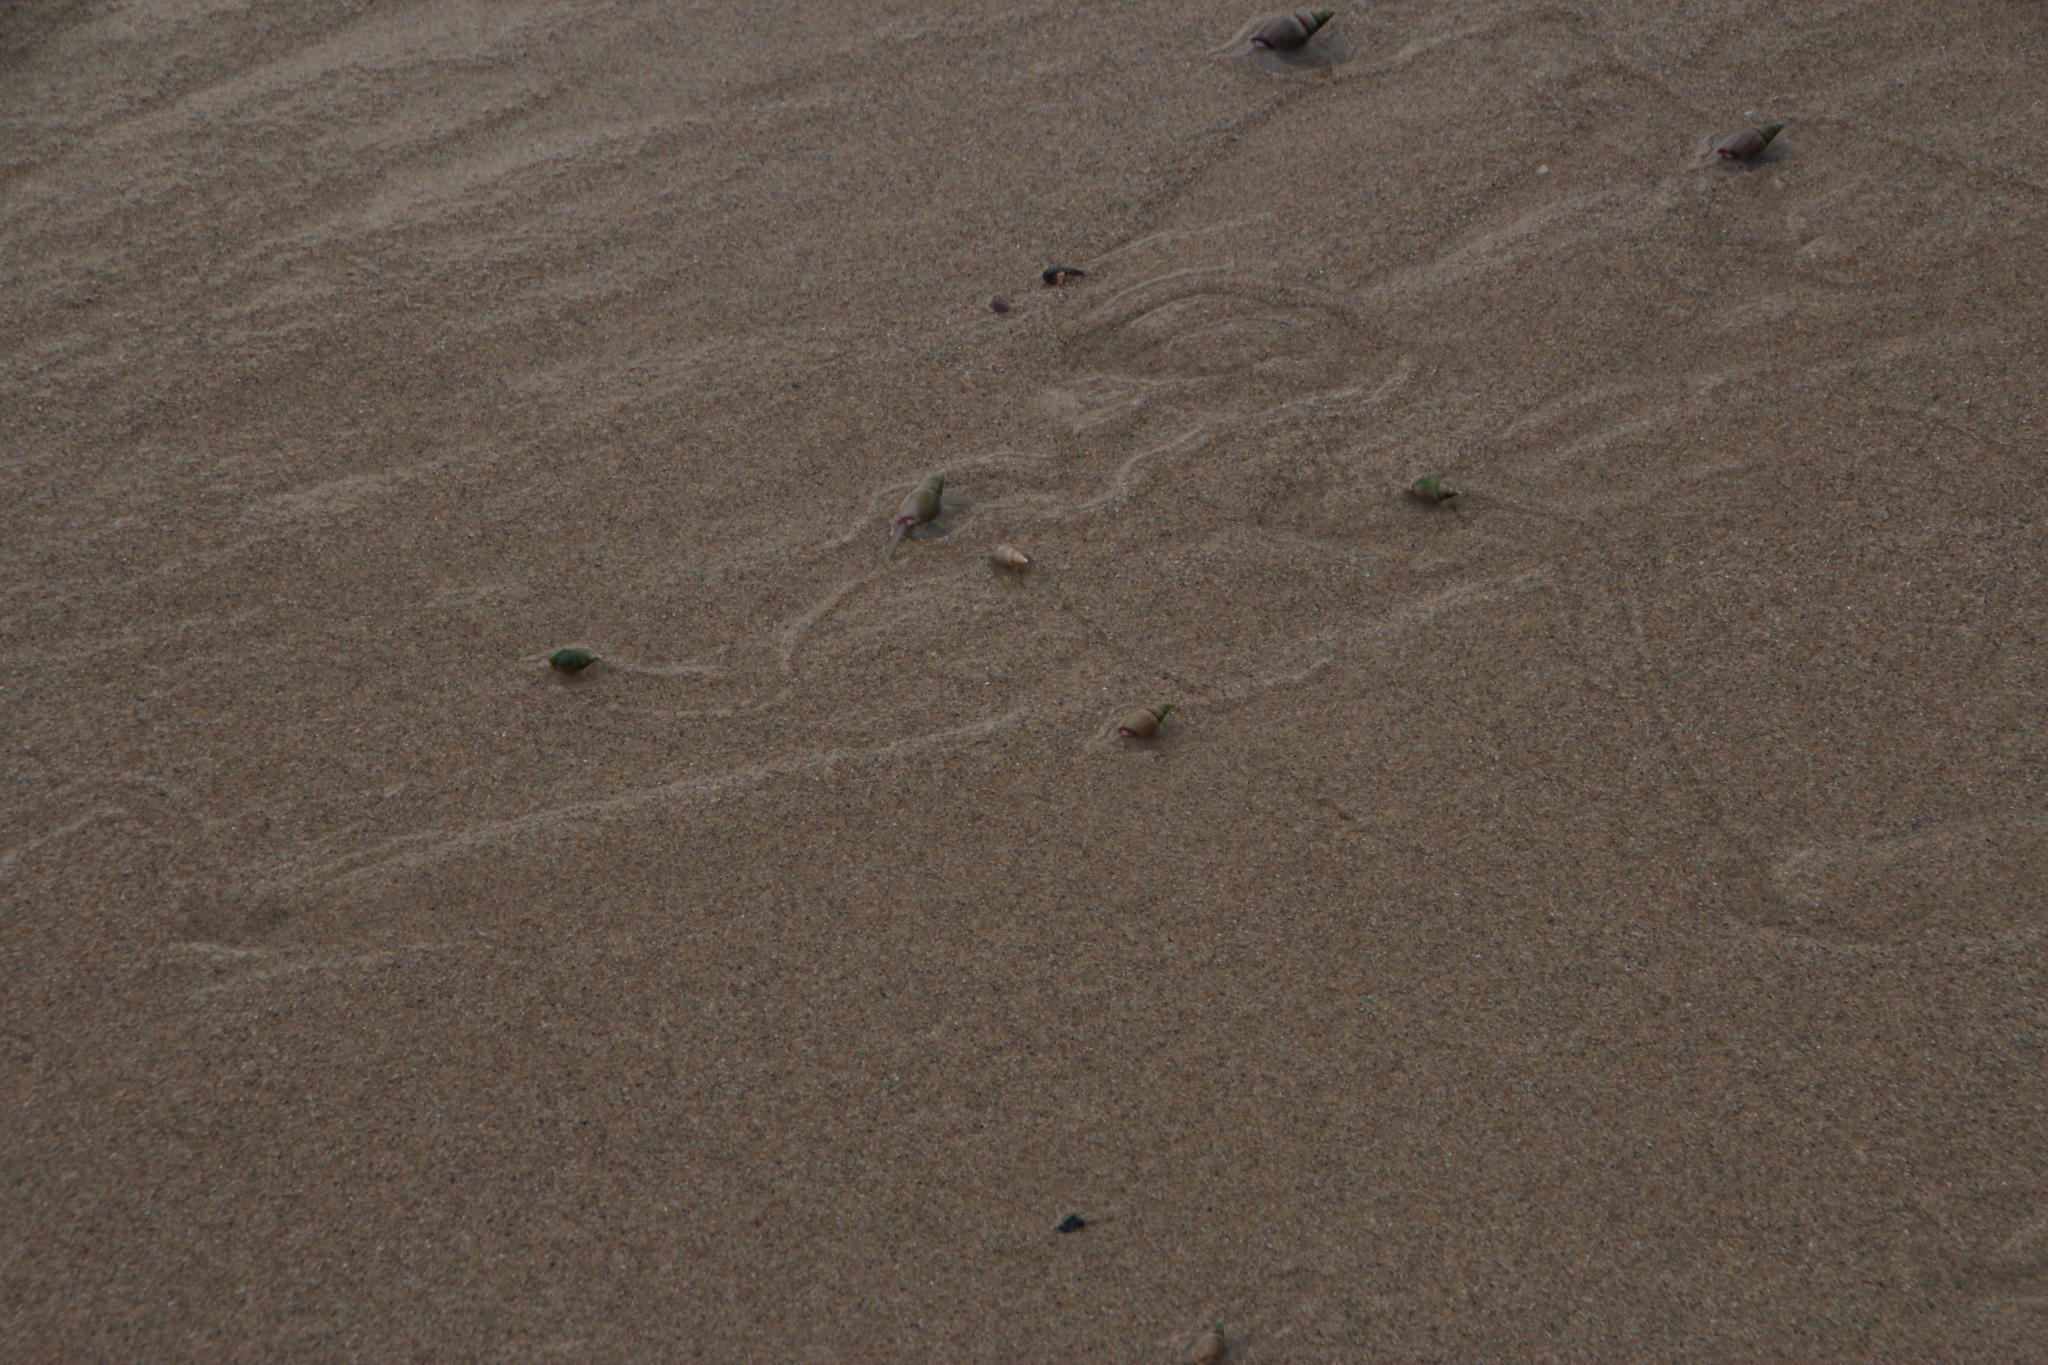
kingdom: Animalia
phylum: Mollusca
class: Gastropoda
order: Neogastropoda
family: Nassariidae
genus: Bullia
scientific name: Bullia rhodostoma
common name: Smooth plough shell
